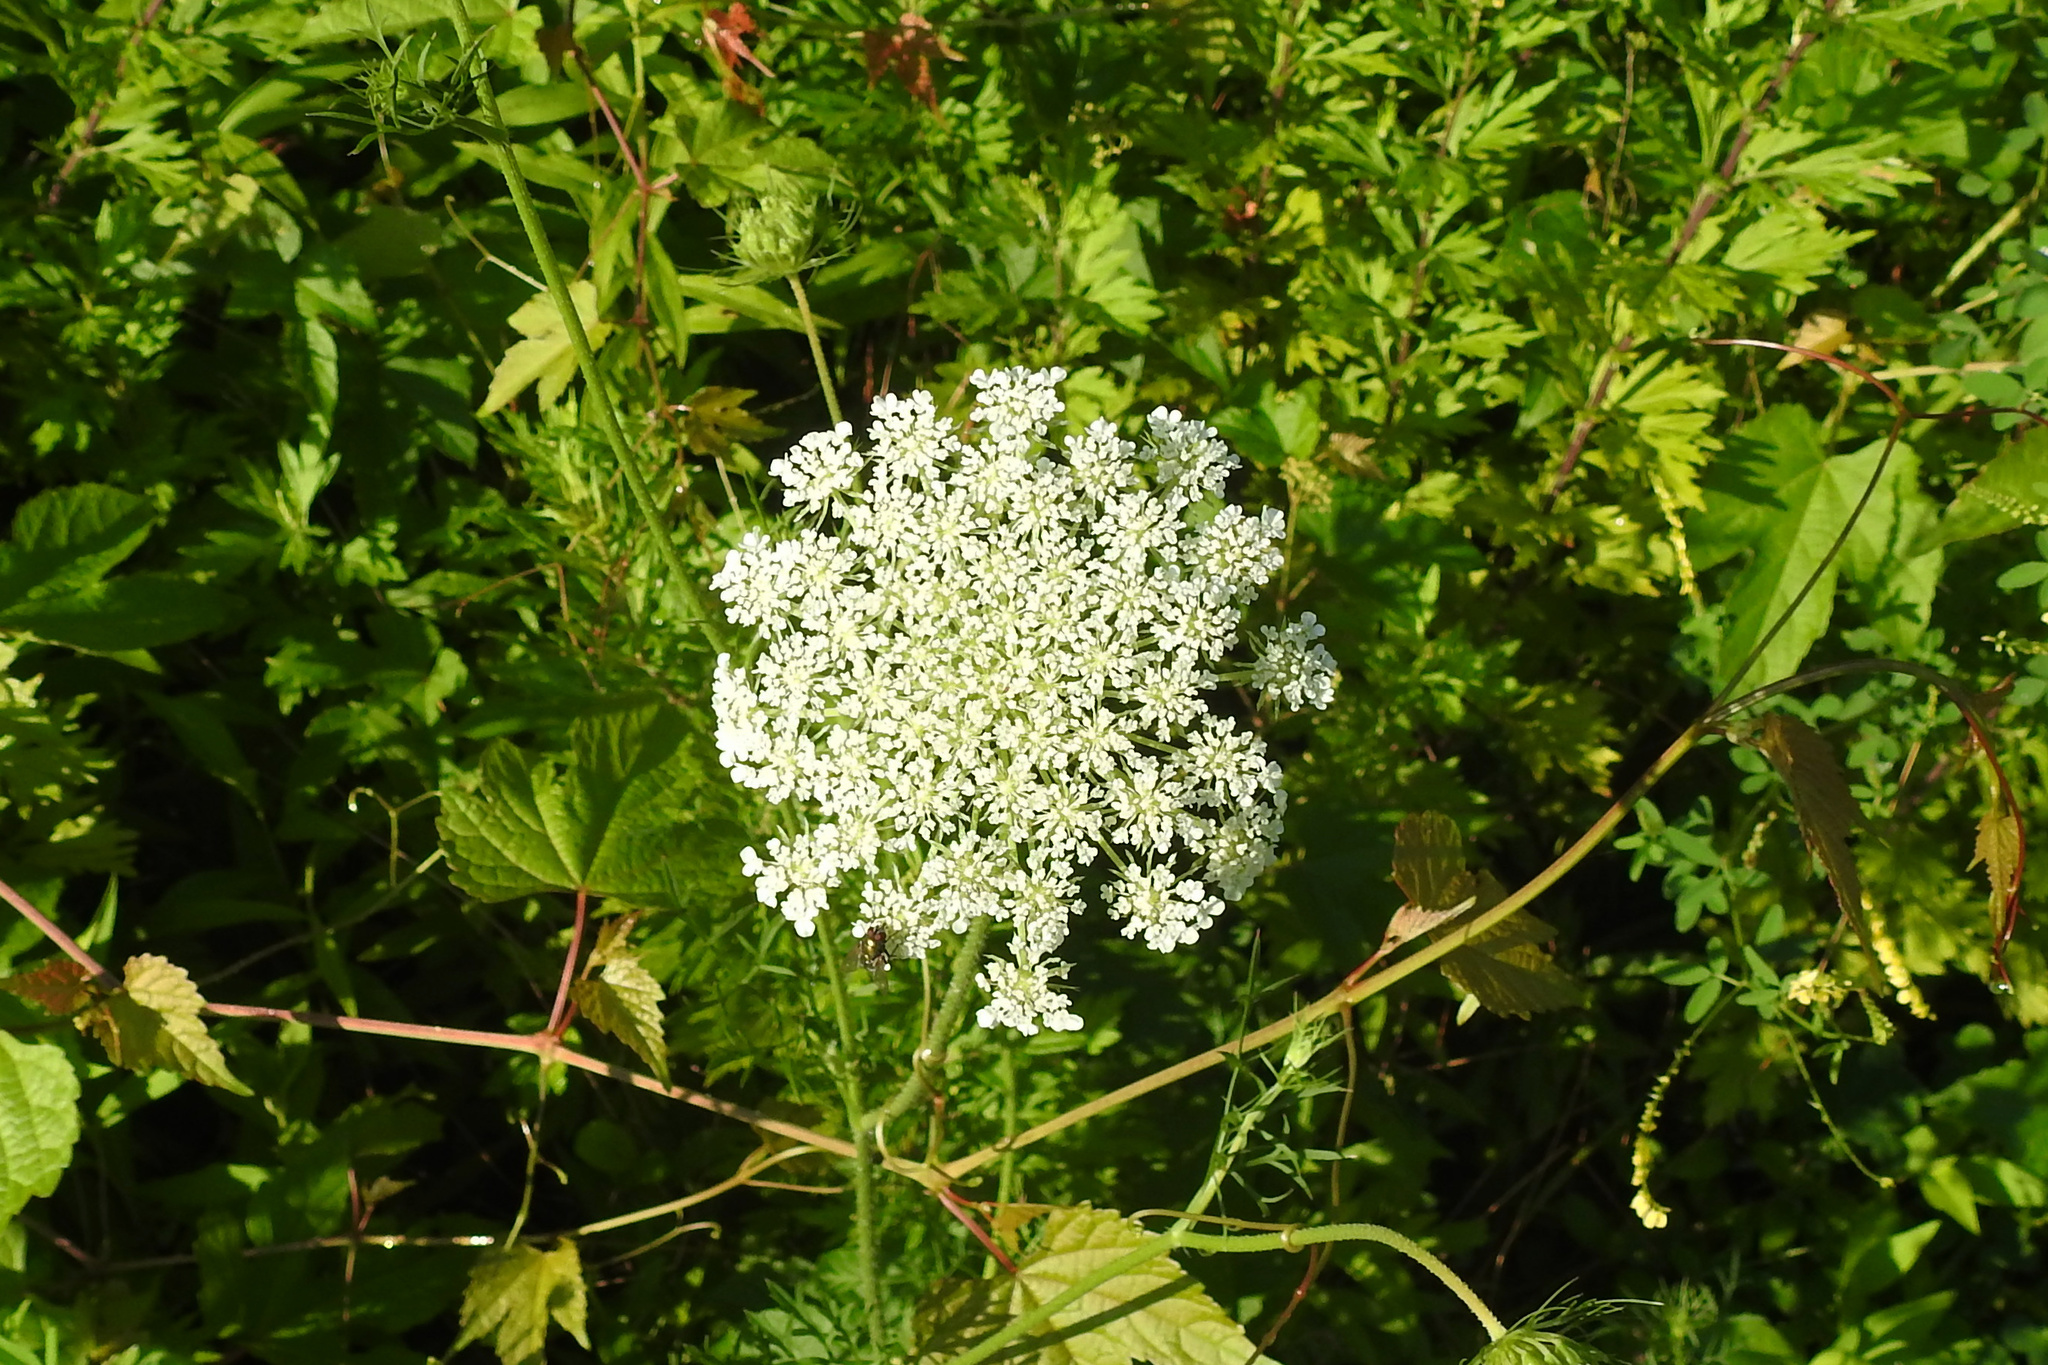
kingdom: Plantae
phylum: Tracheophyta
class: Magnoliopsida
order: Apiales
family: Apiaceae
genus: Daucus
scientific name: Daucus carota
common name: Wild carrot
